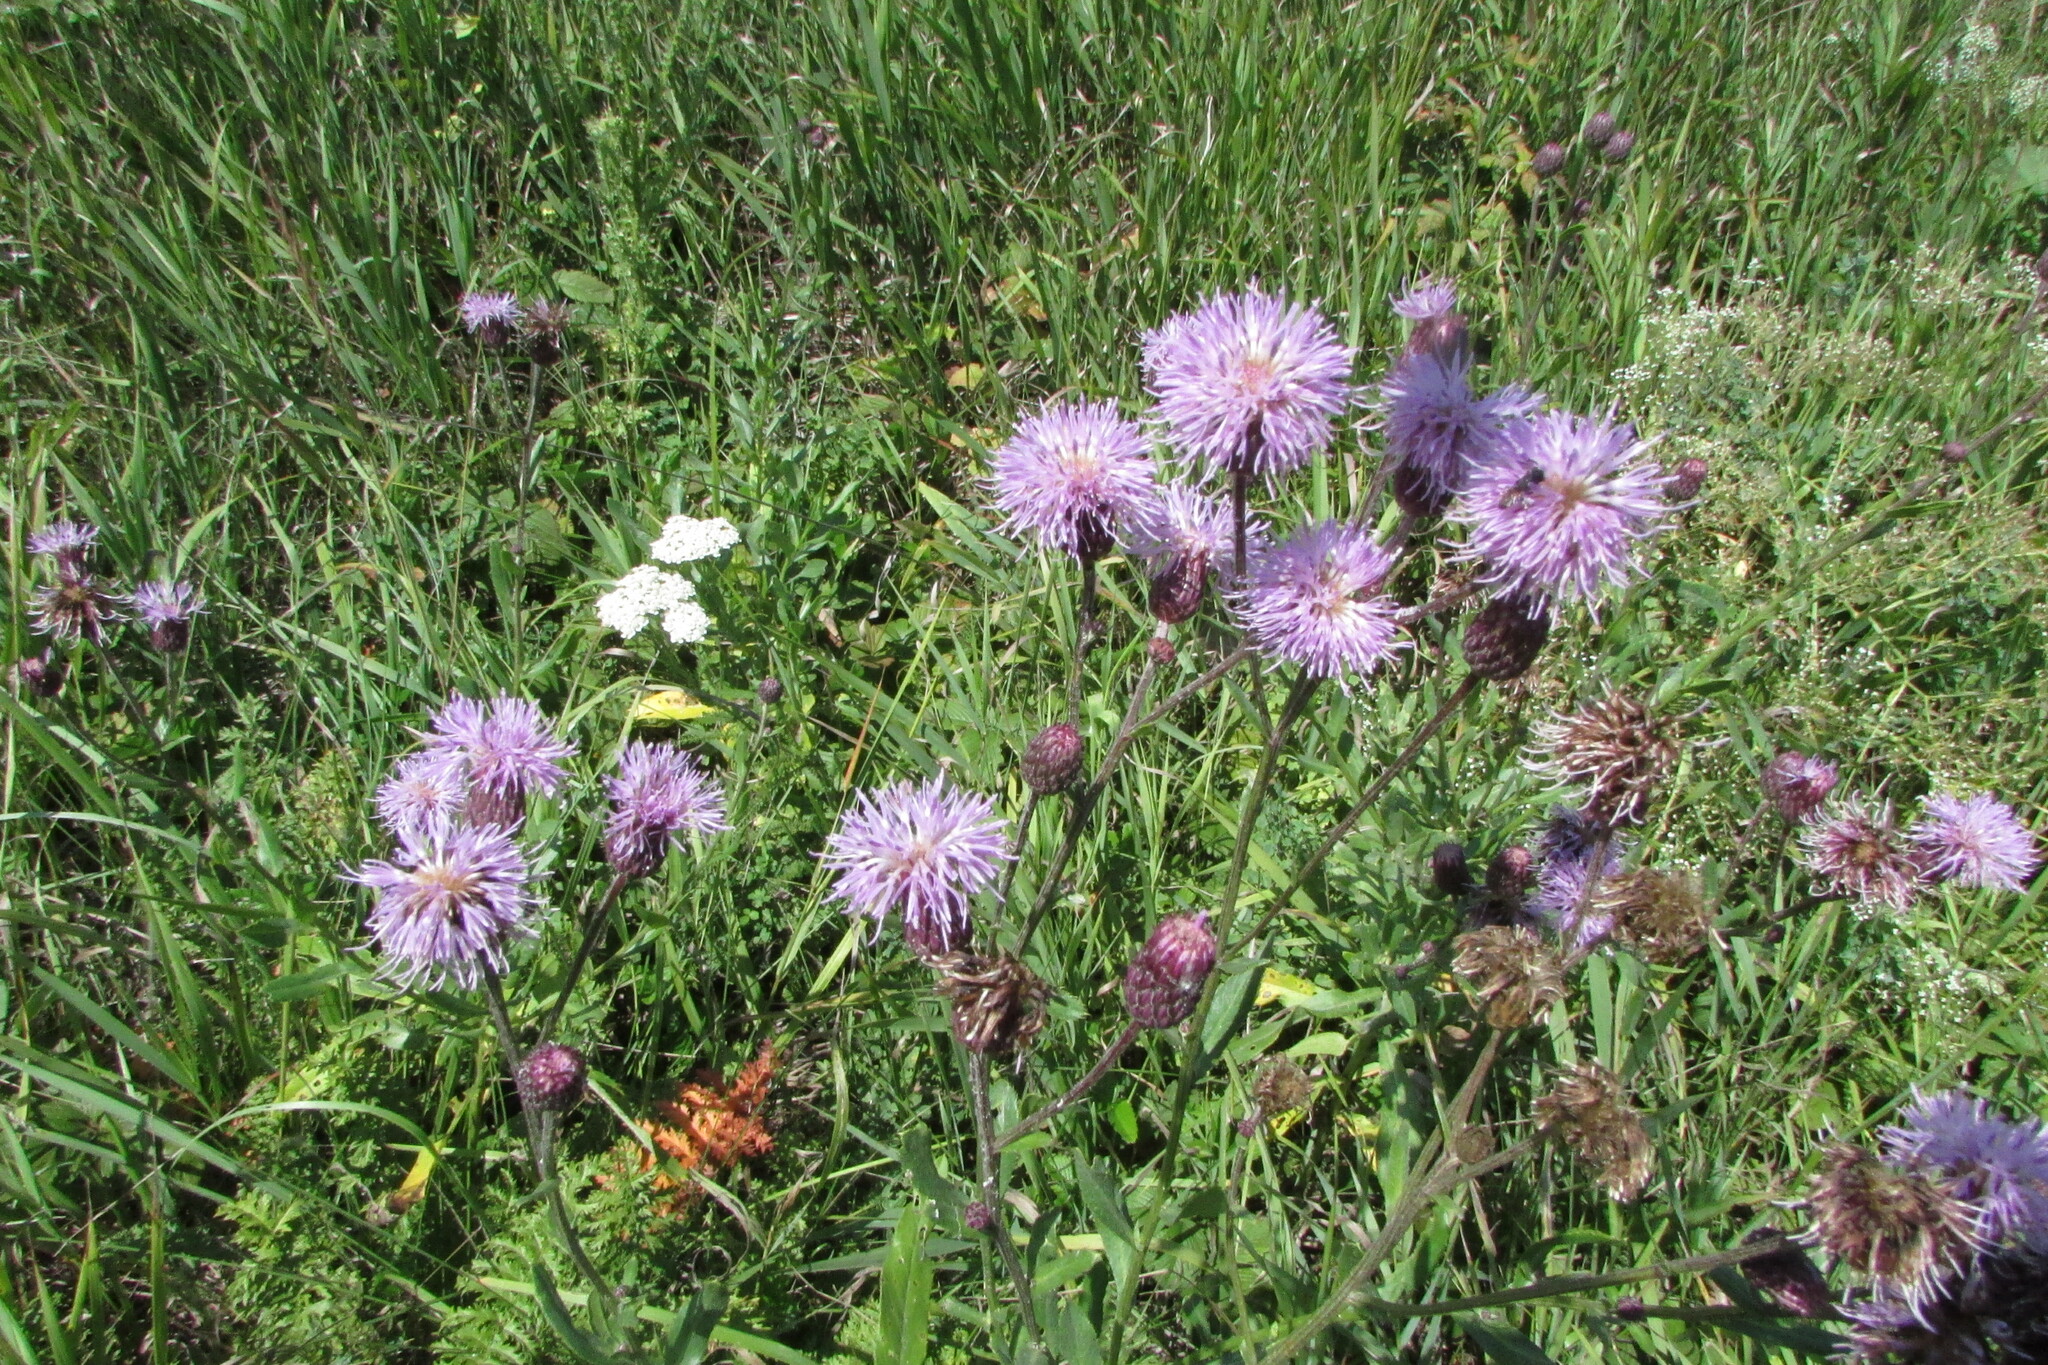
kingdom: Plantae
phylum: Tracheophyta
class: Magnoliopsida
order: Asterales
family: Asteraceae
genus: Cirsium
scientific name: Cirsium arvense
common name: Creeping thistle
